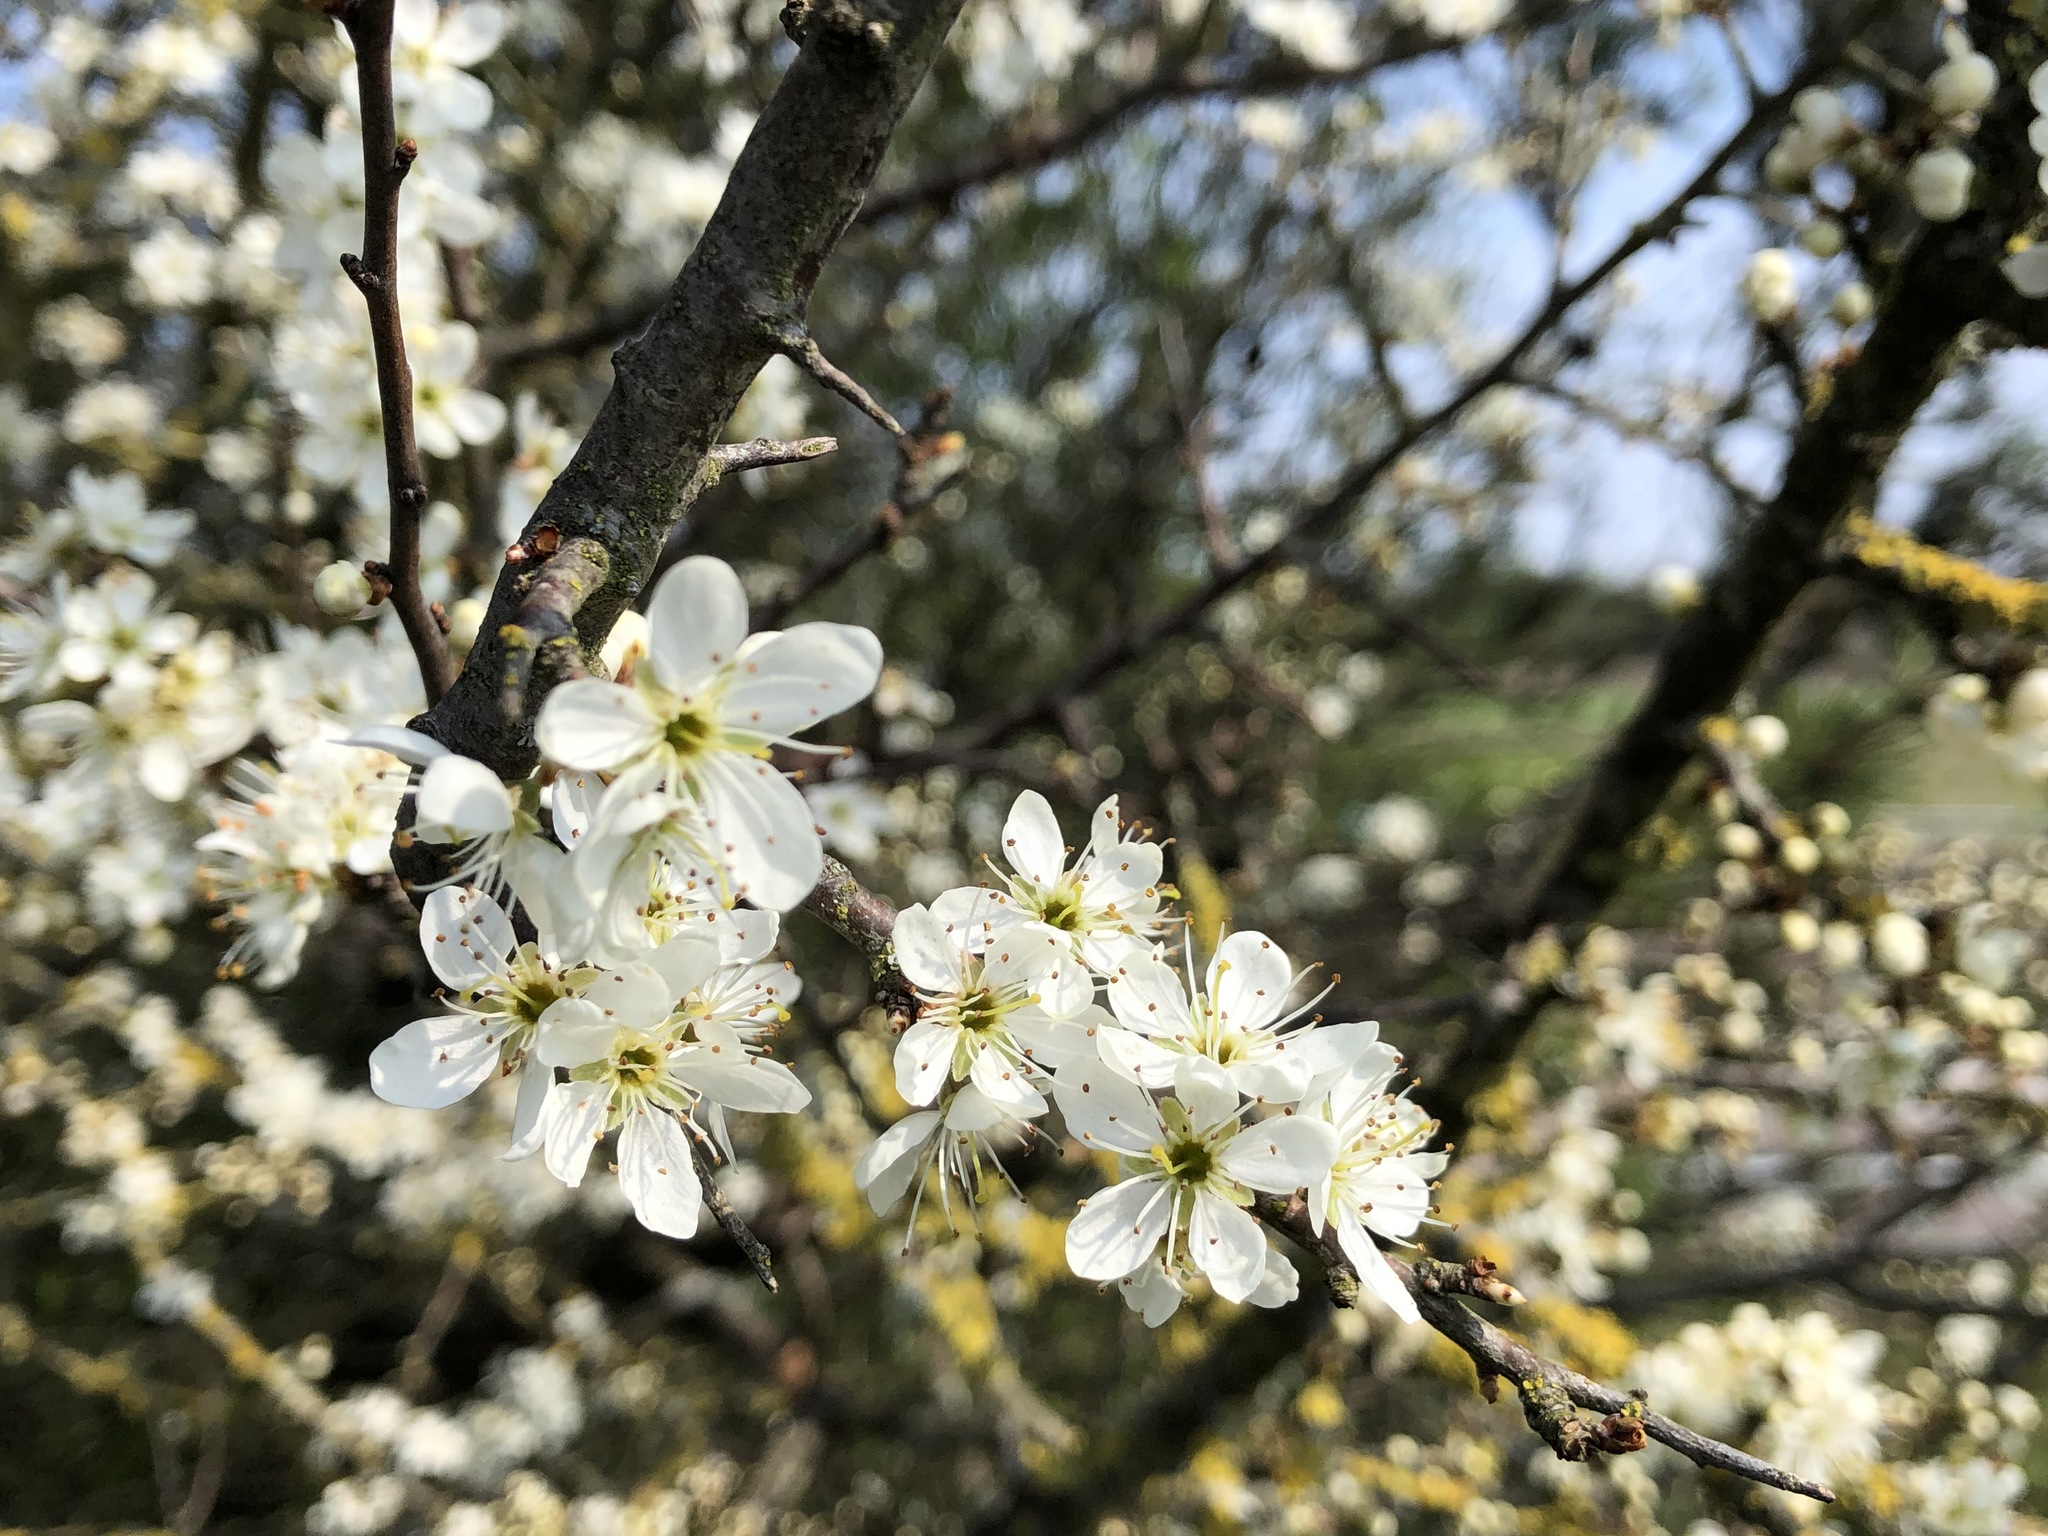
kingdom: Plantae
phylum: Tracheophyta
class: Magnoliopsida
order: Rosales
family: Rosaceae
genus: Prunus
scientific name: Prunus spinosa
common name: Blackthorn
